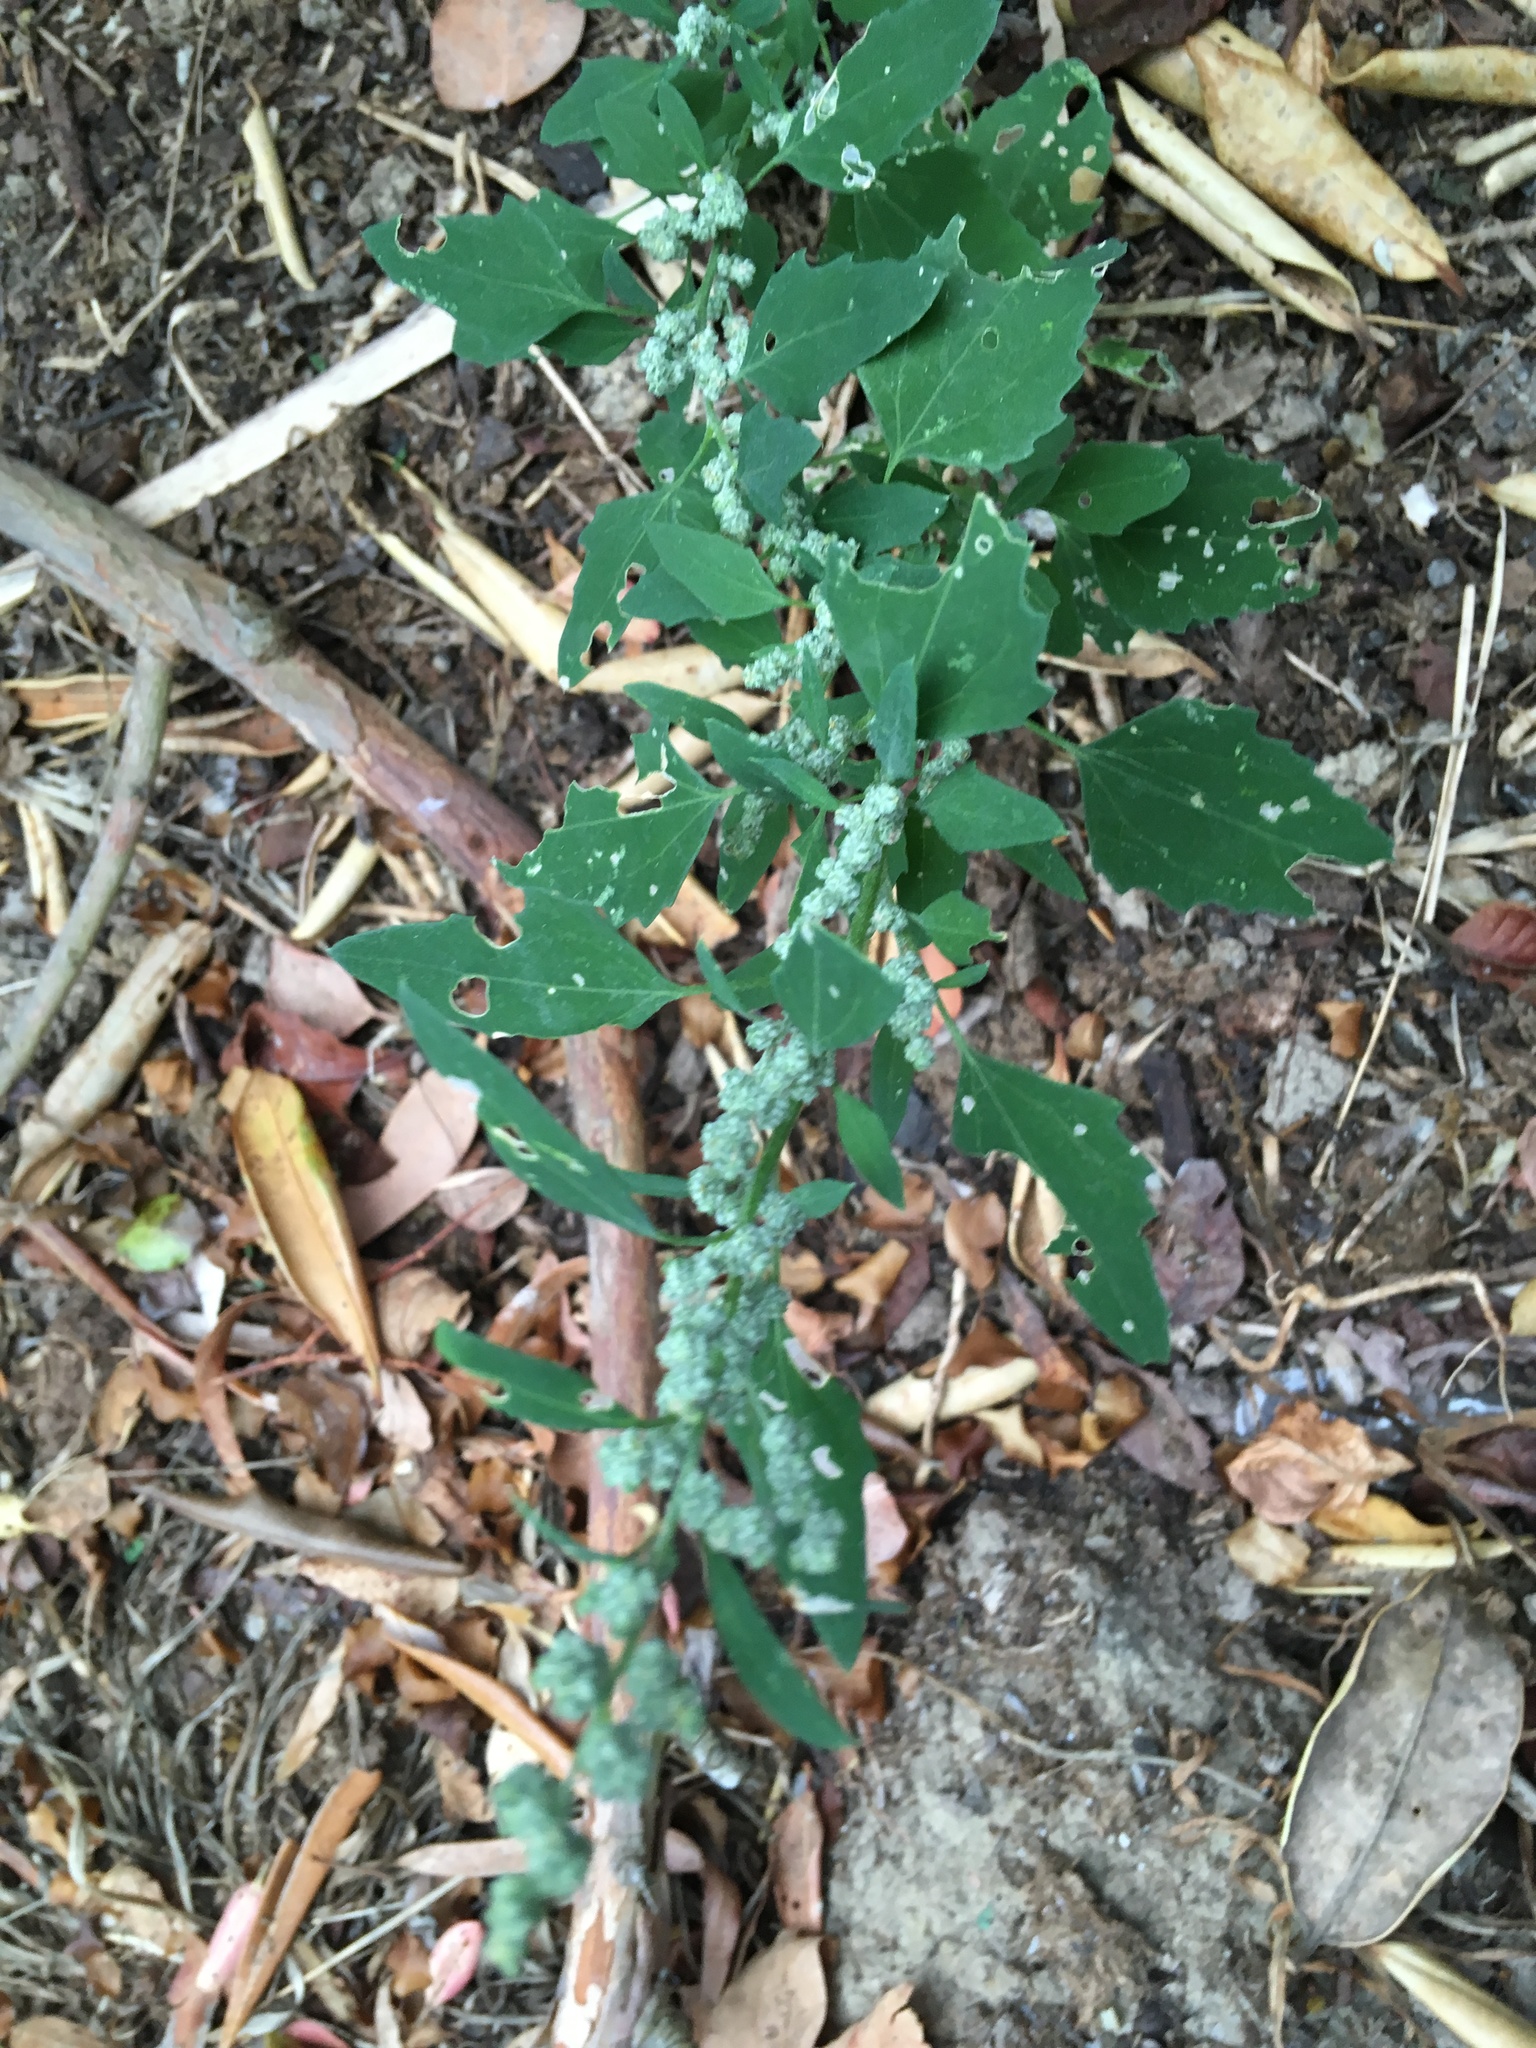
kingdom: Plantae
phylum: Tracheophyta
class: Magnoliopsida
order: Caryophyllales
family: Amaranthaceae
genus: Chenopodium
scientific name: Chenopodium album
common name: Fat-hen
